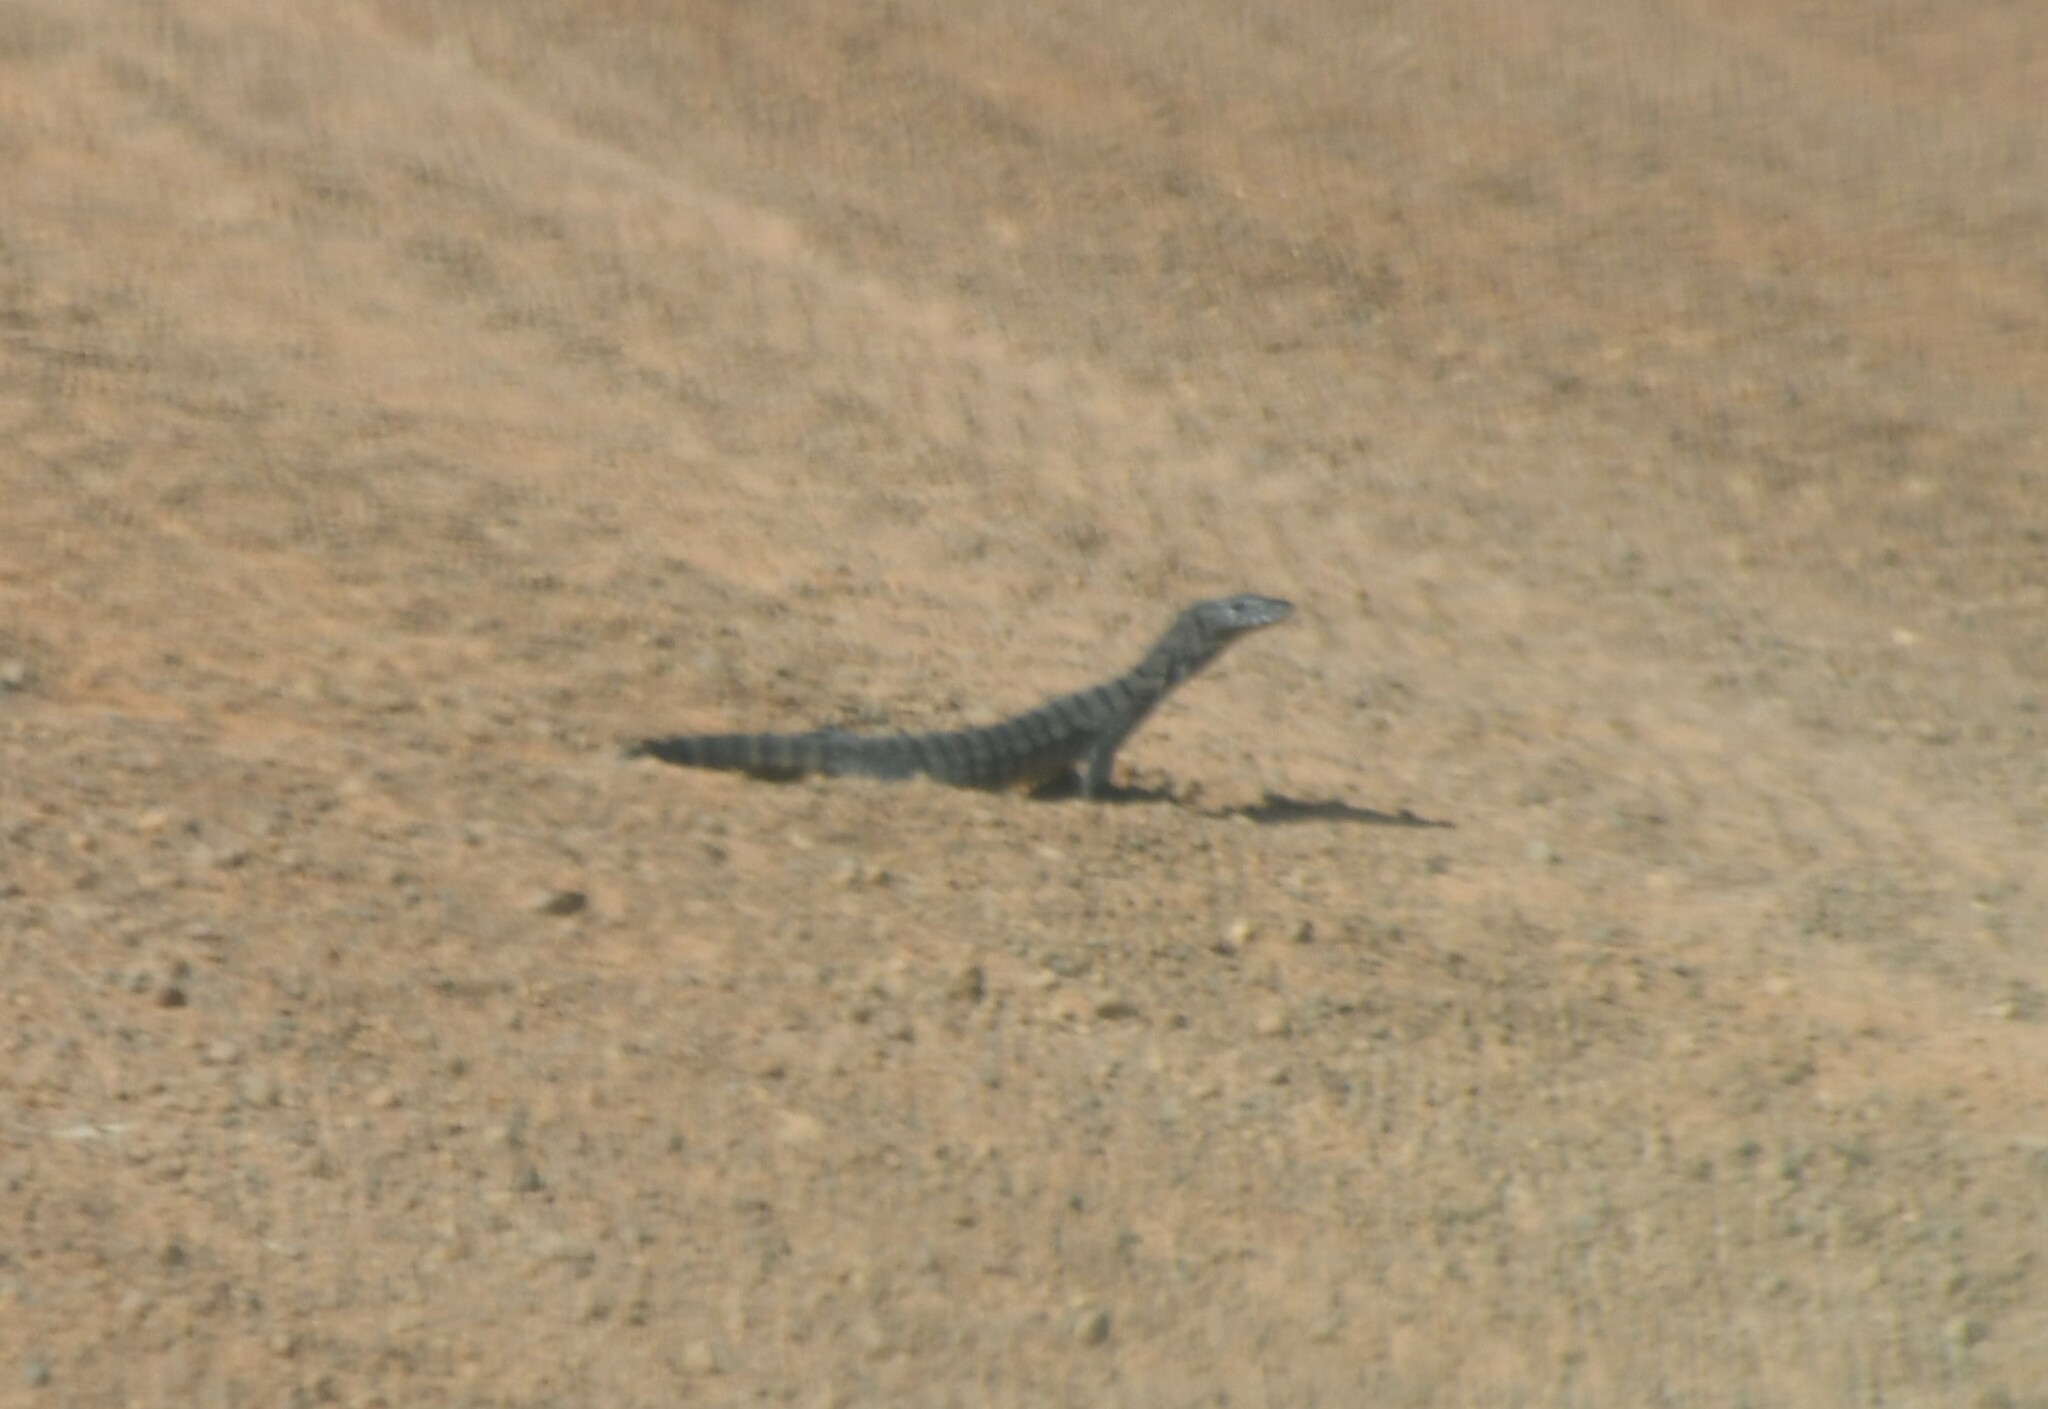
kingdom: Animalia
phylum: Chordata
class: Squamata
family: Varanidae
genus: Varanus
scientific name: Varanus rosenbergi
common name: Heath monitor
